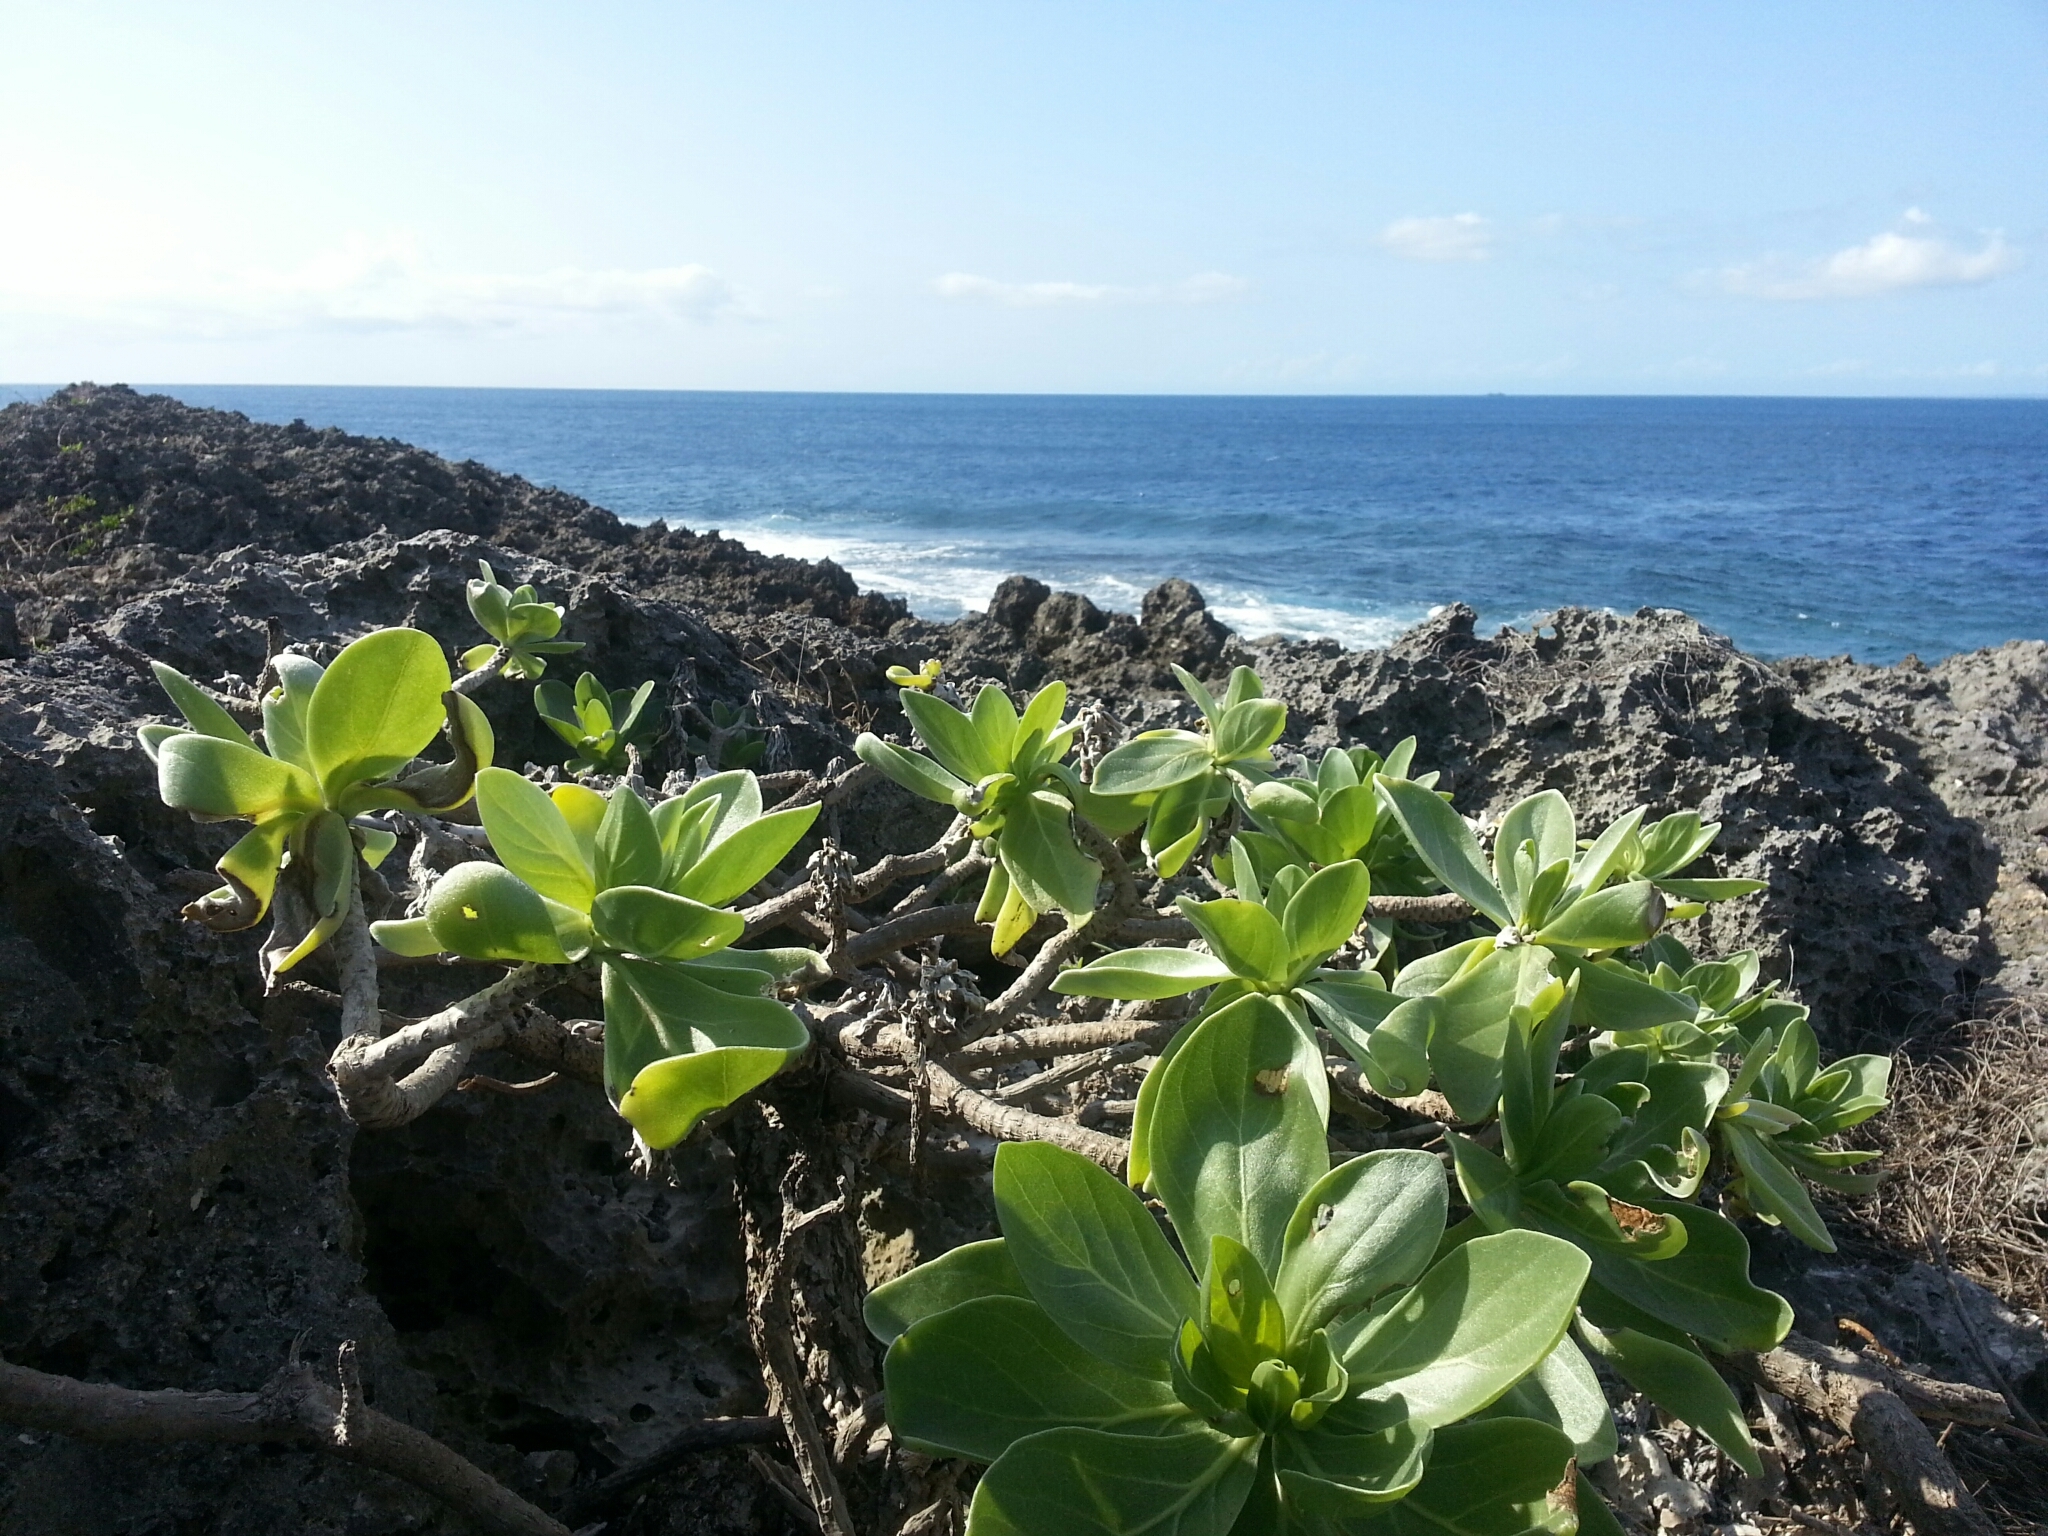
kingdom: Plantae
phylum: Tracheophyta
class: Magnoliopsida
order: Boraginales
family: Heliotropiaceae
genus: Heliotropium
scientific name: Heliotropium velutinum
